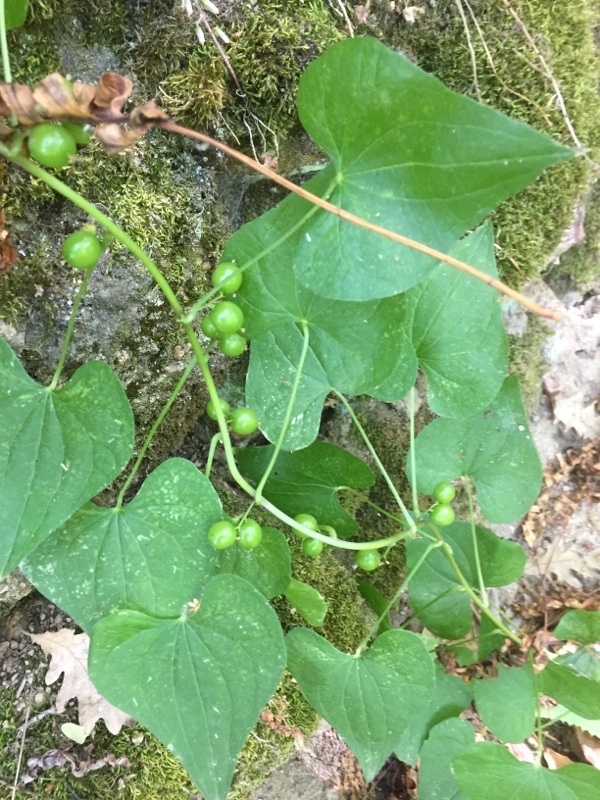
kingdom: Plantae
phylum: Tracheophyta
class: Liliopsida
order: Dioscoreales
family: Dioscoreaceae
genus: Dioscorea
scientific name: Dioscorea communis
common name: Black-bindweed
